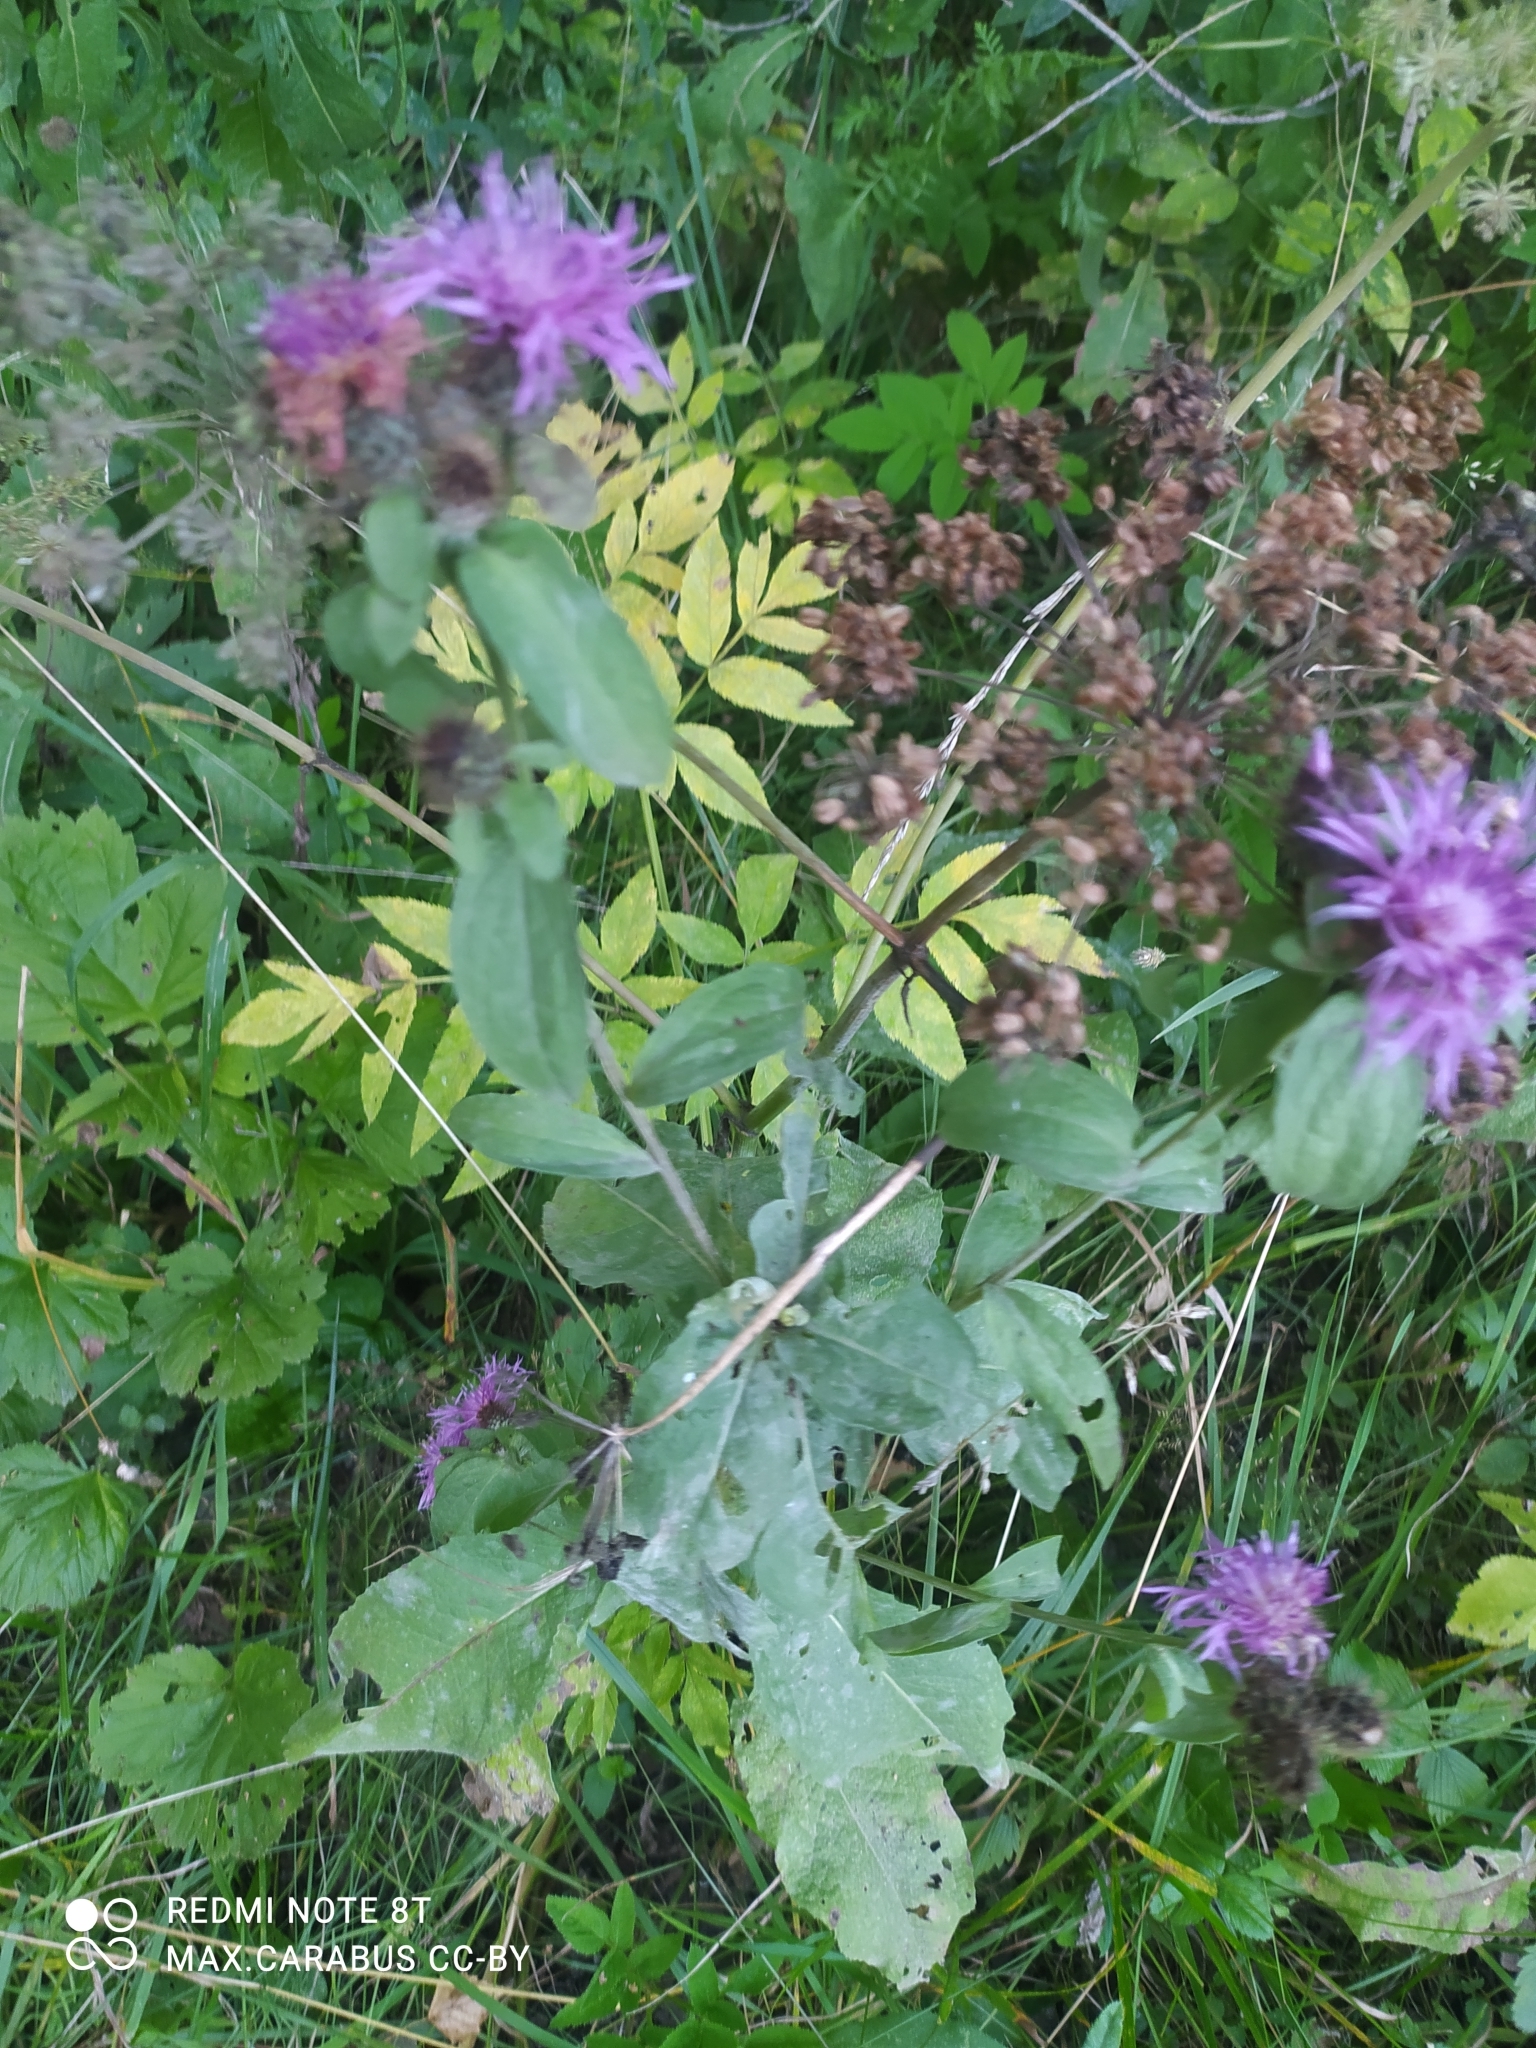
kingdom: Plantae
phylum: Tracheophyta
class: Magnoliopsida
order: Asterales
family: Asteraceae
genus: Centaurea
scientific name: Centaurea phrygia
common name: Wig knapweed
